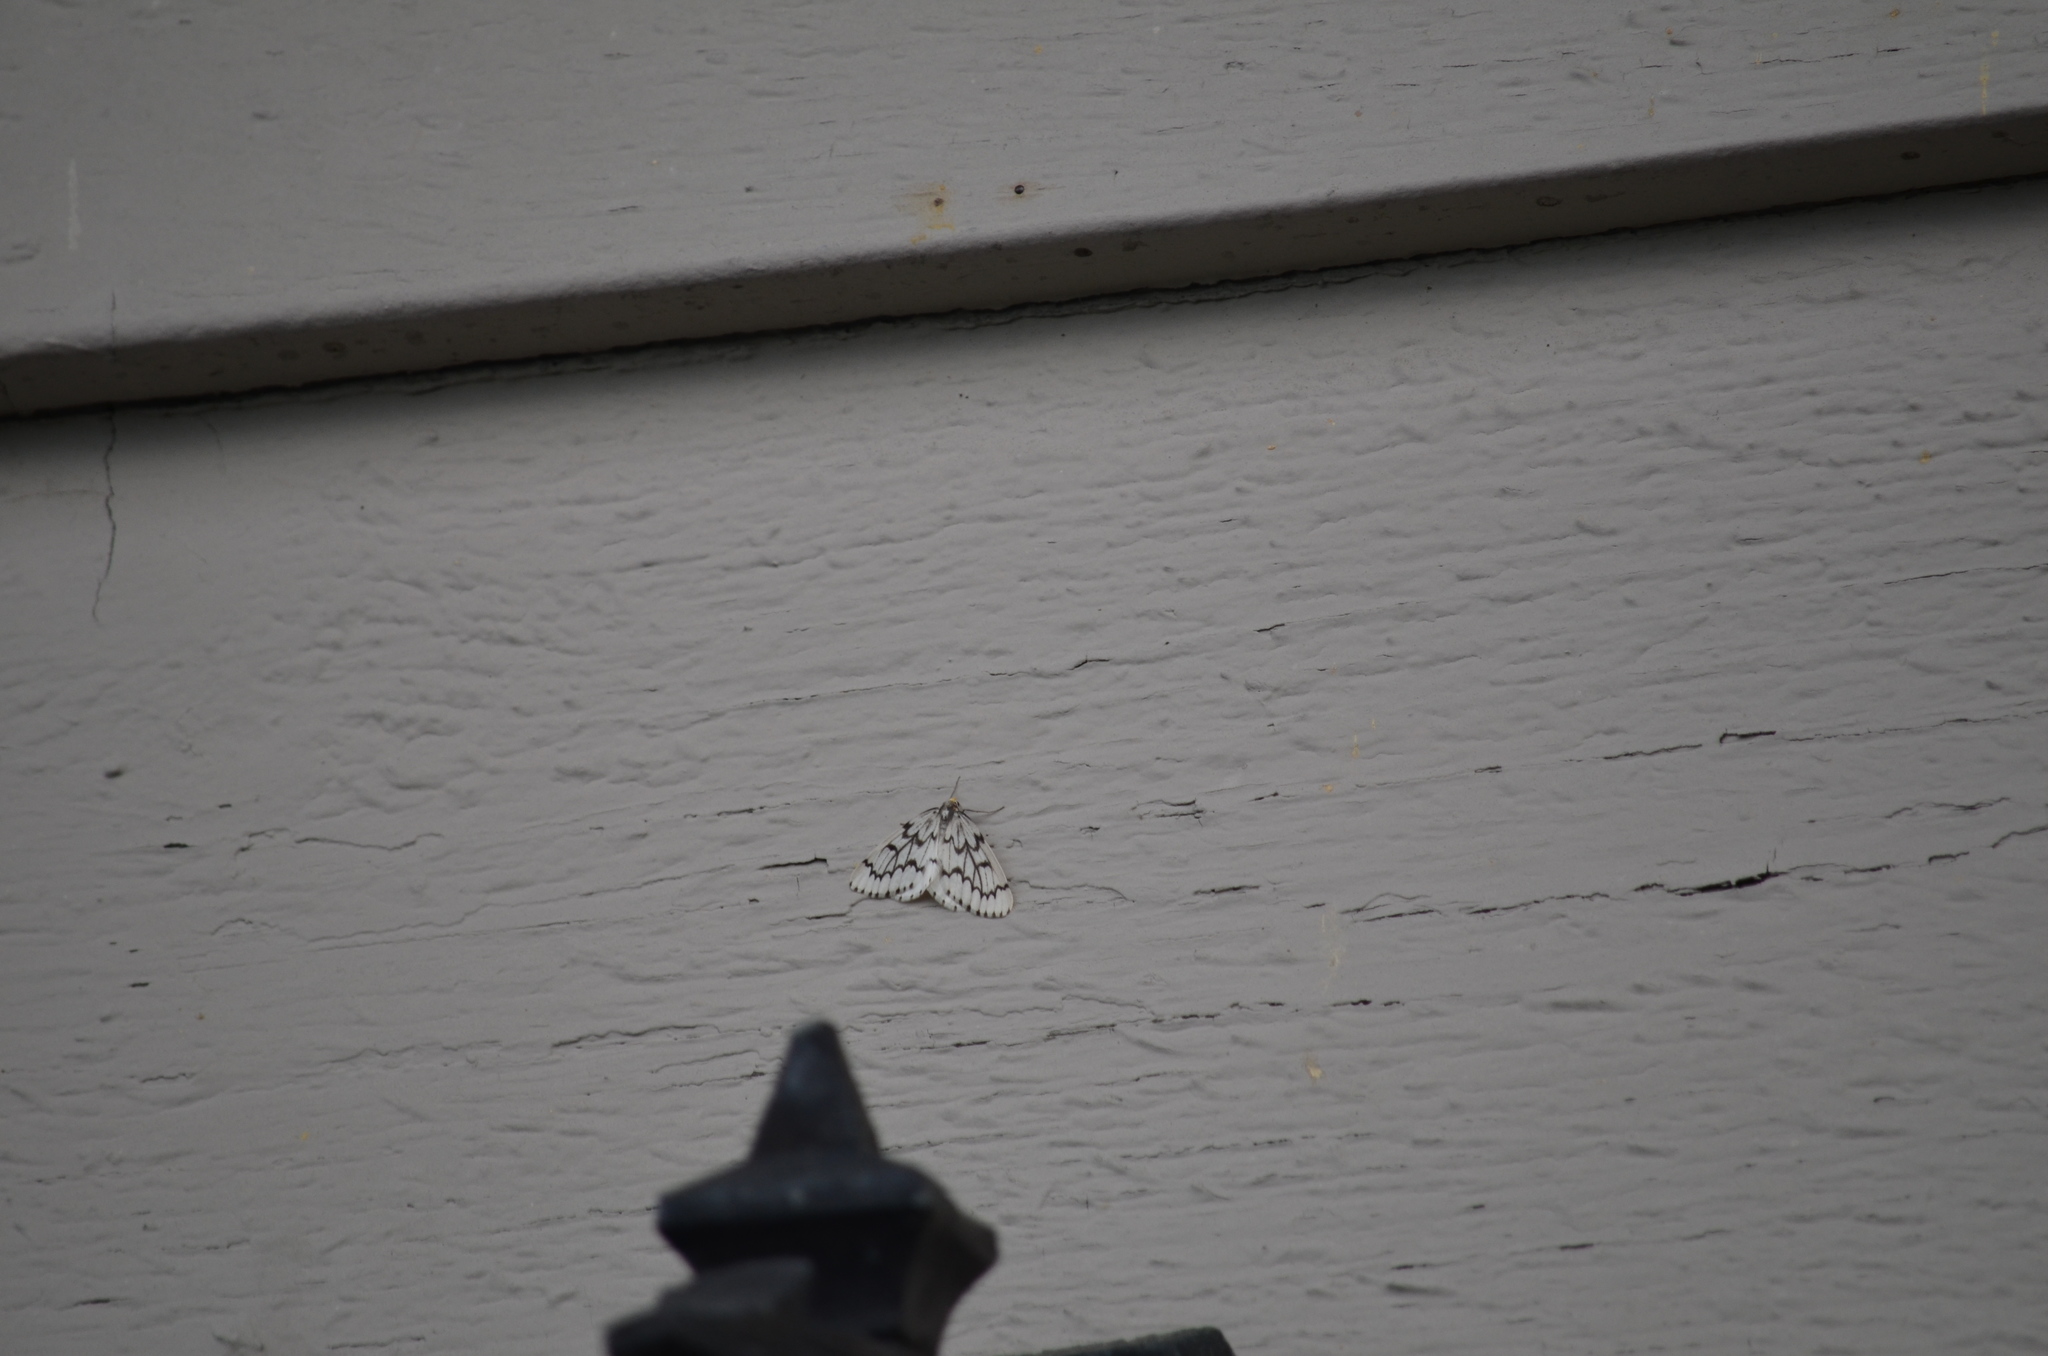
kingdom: Animalia
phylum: Arthropoda
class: Insecta
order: Lepidoptera
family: Geometridae
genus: Nepytia
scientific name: Nepytia phantasmaria
